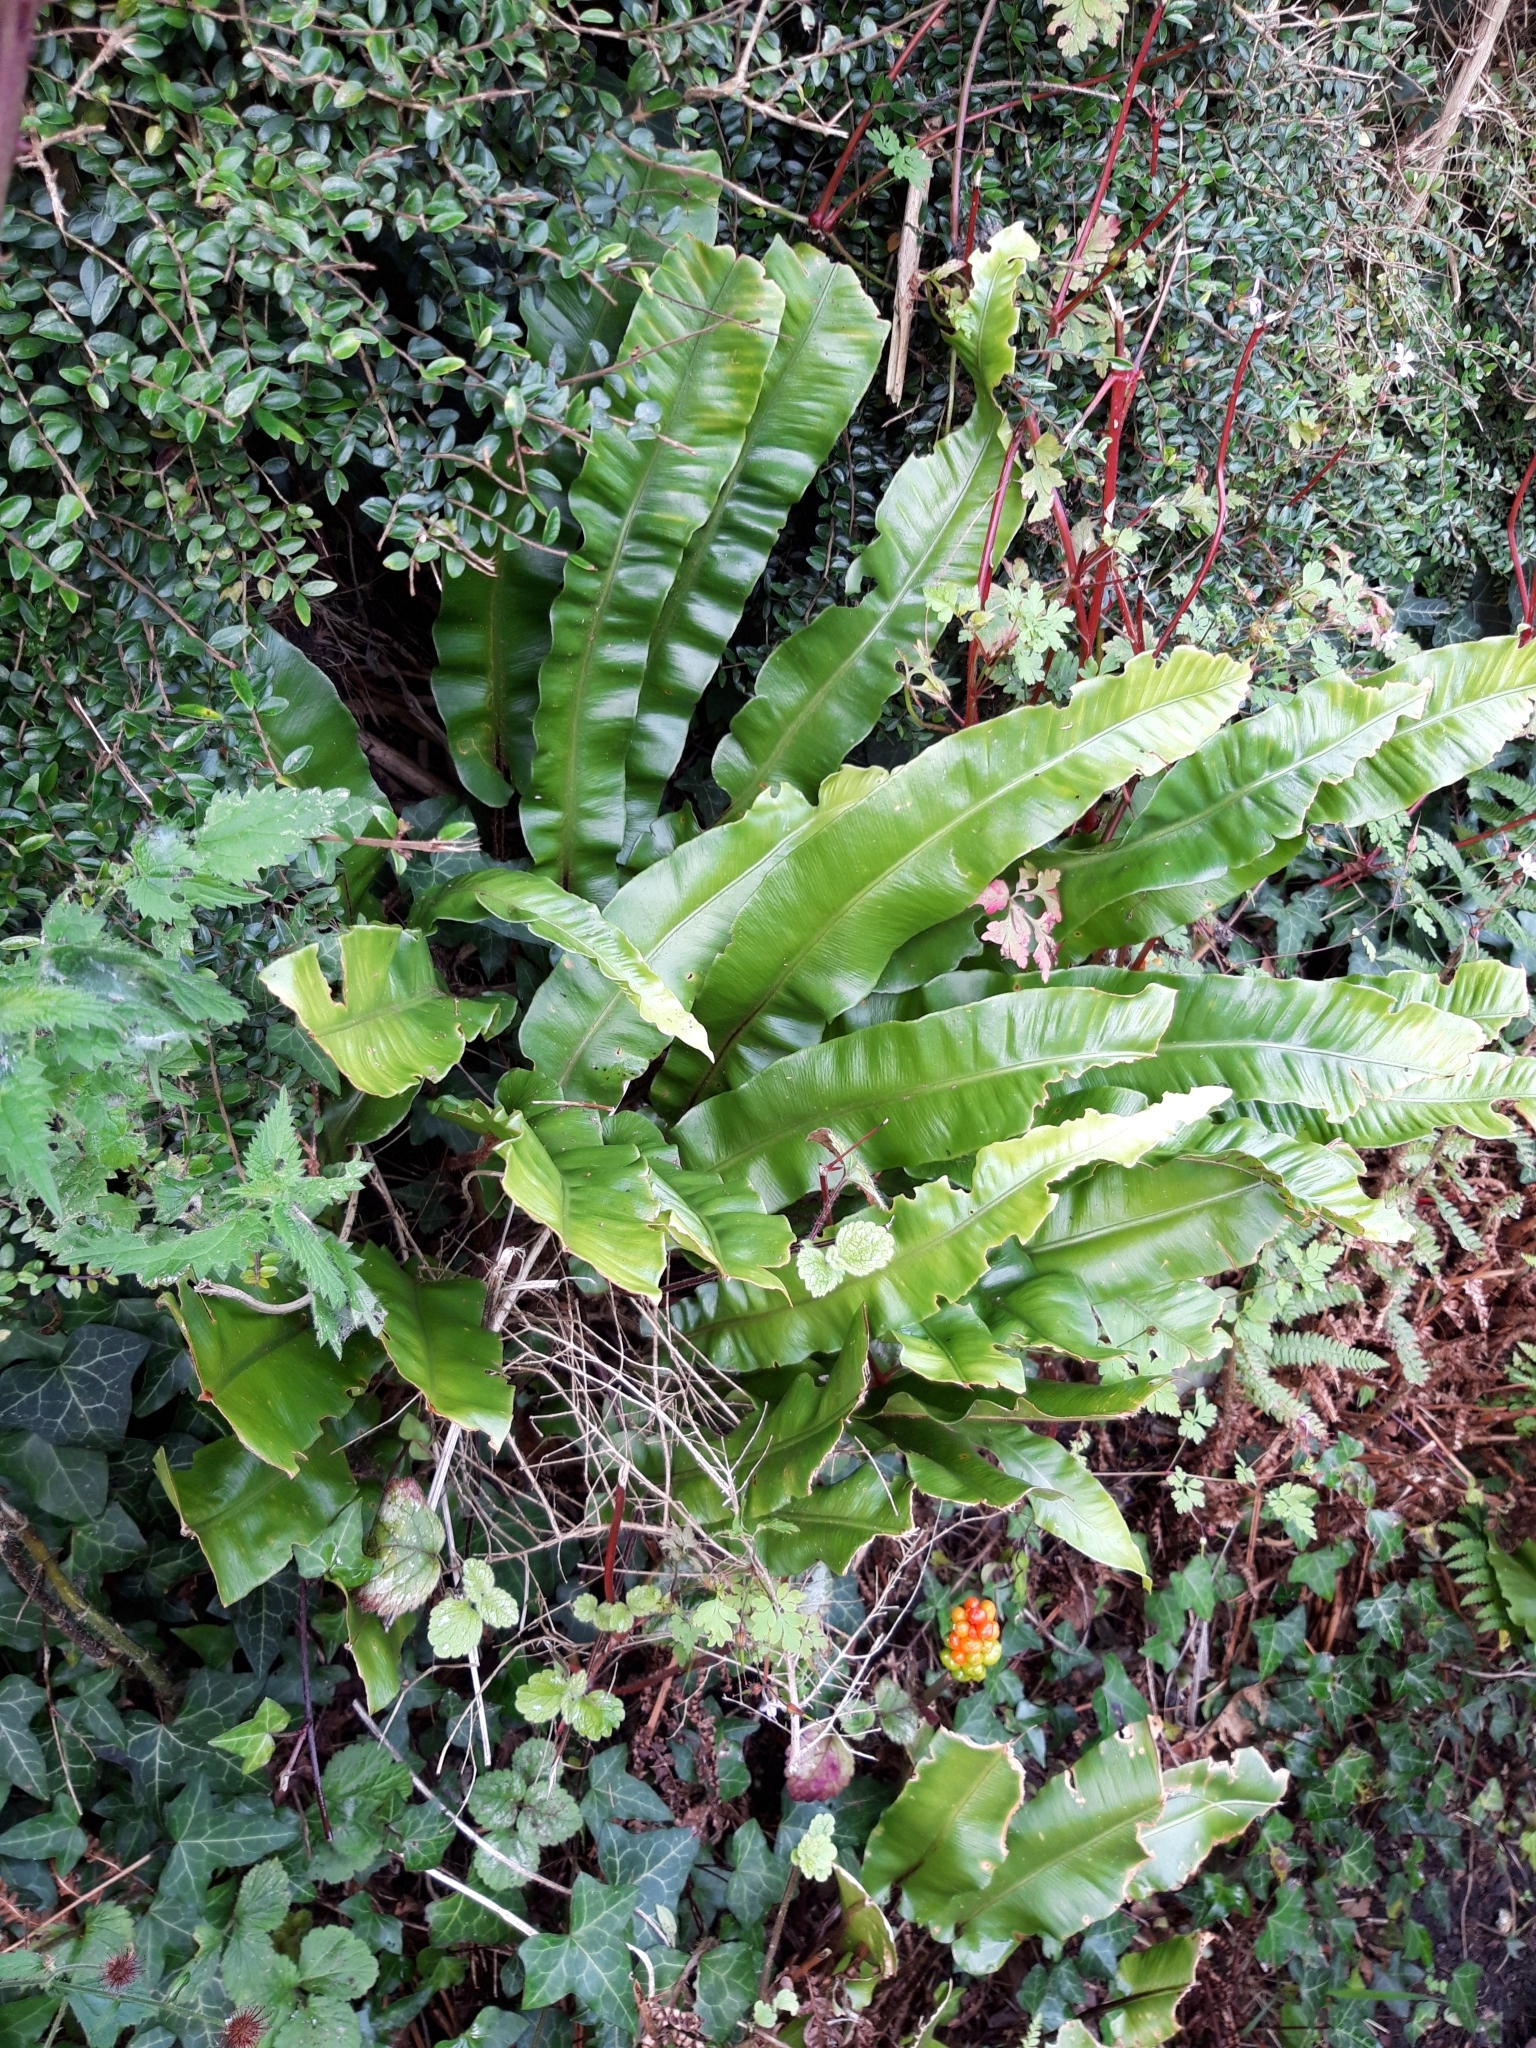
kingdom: Plantae
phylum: Tracheophyta
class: Polypodiopsida
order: Polypodiales
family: Aspleniaceae
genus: Asplenium
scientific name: Asplenium scolopendrium
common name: Hart's-tongue fern
